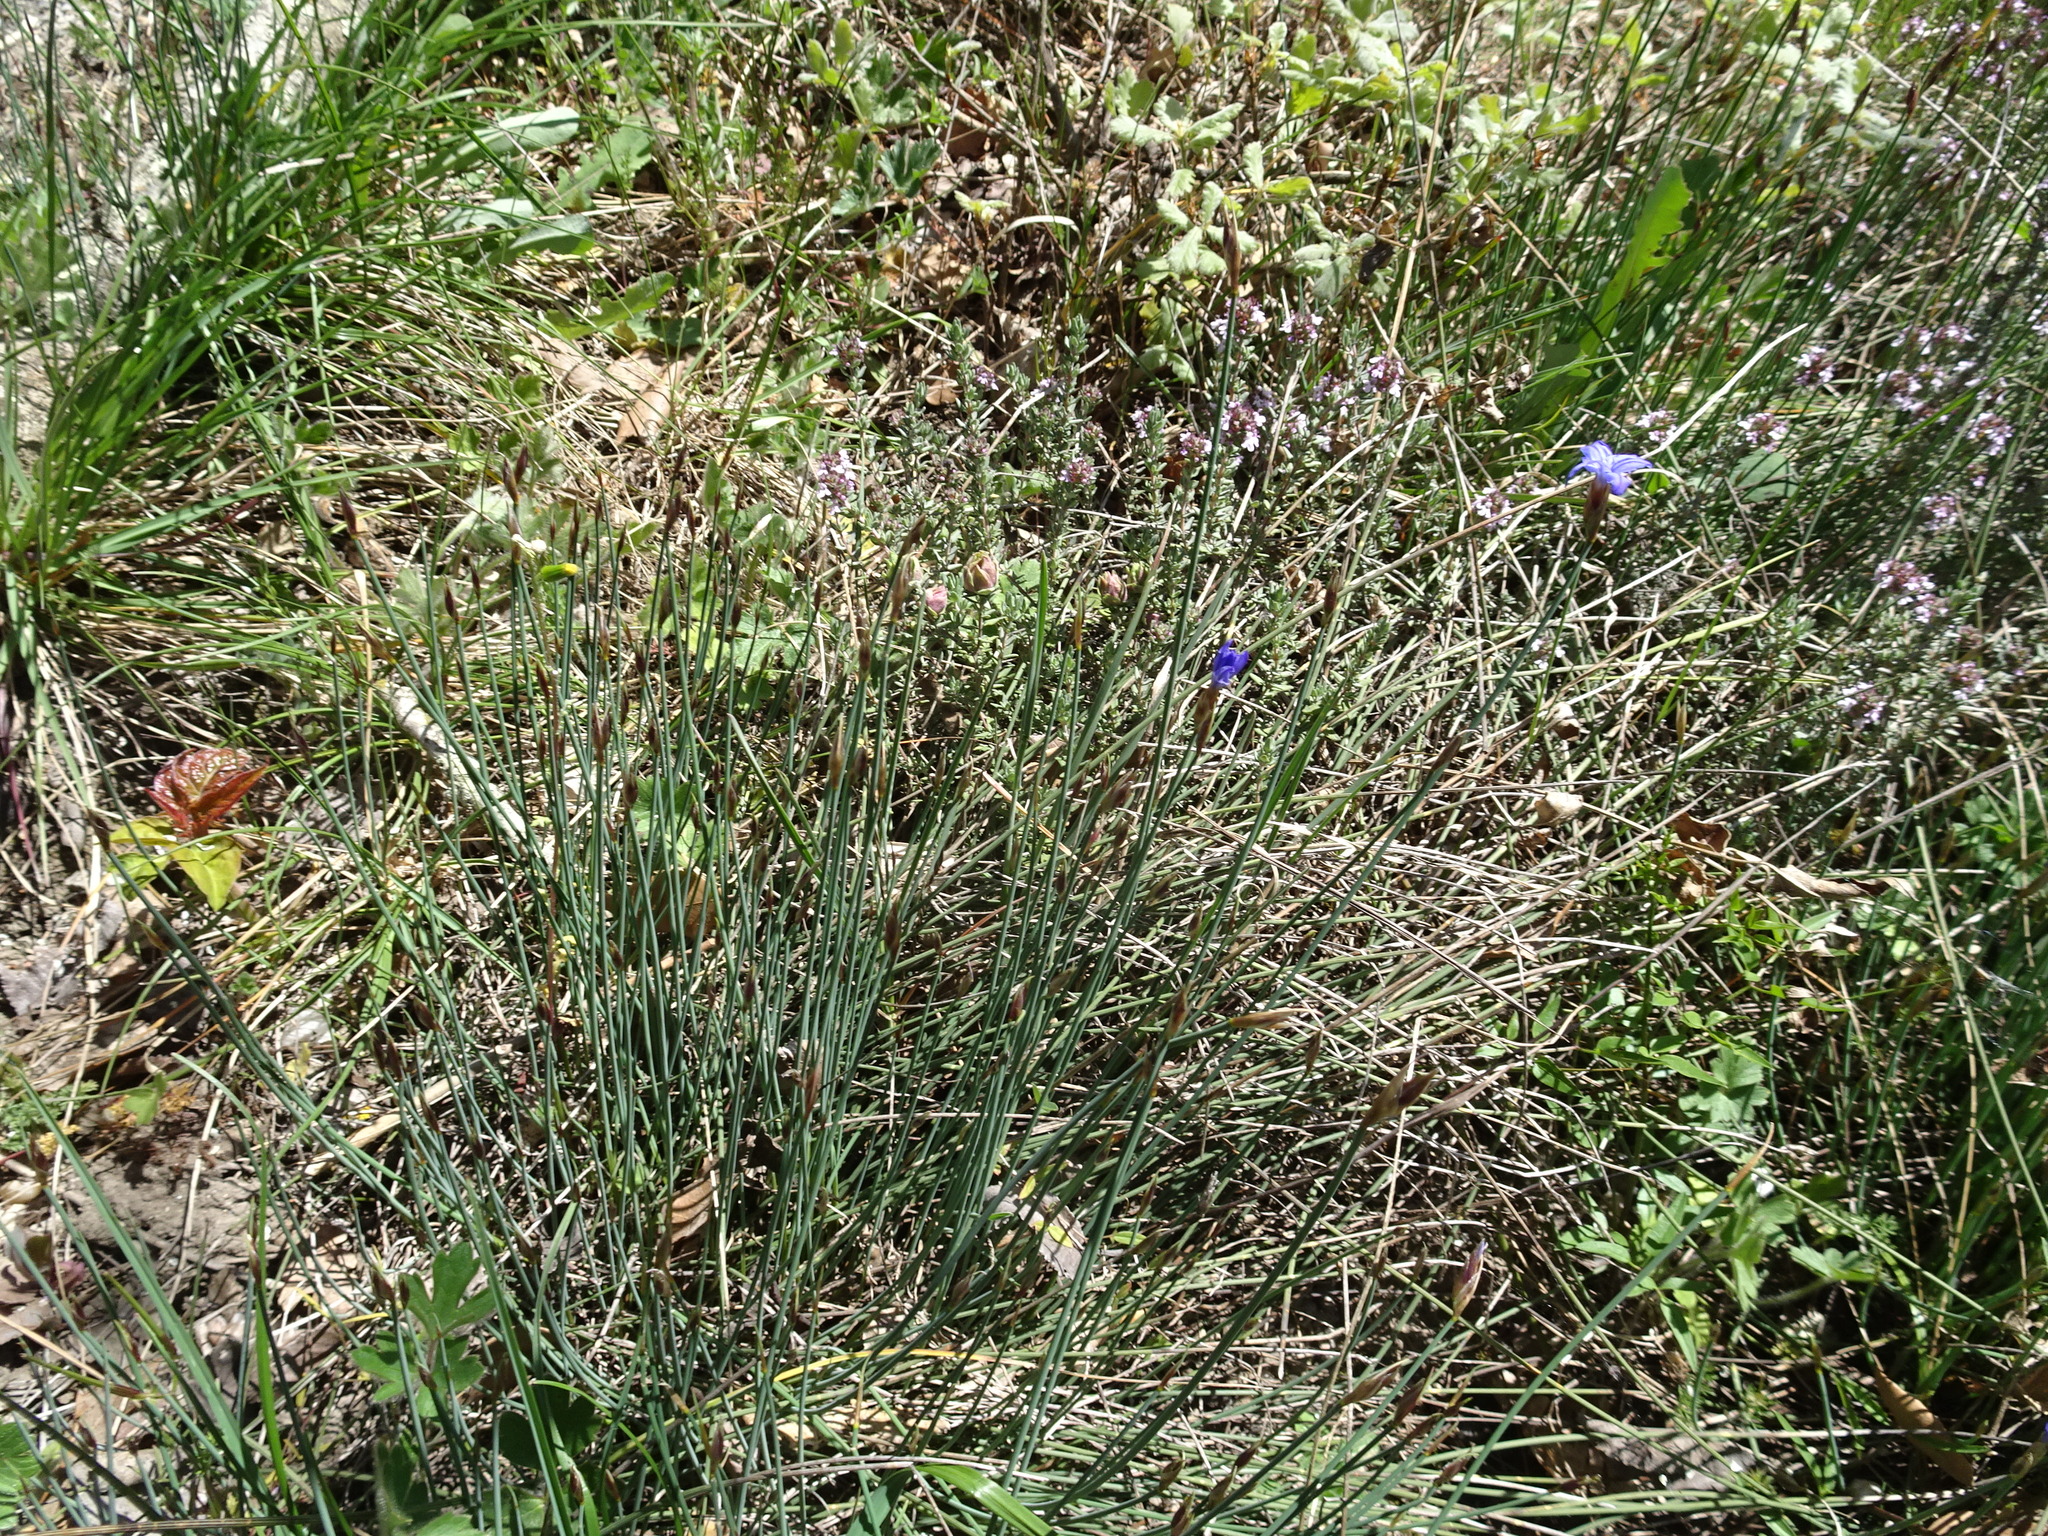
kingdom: Plantae
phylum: Tracheophyta
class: Liliopsida
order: Asparagales
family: Asparagaceae
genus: Aphyllanthes
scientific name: Aphyllanthes monspeliensis
